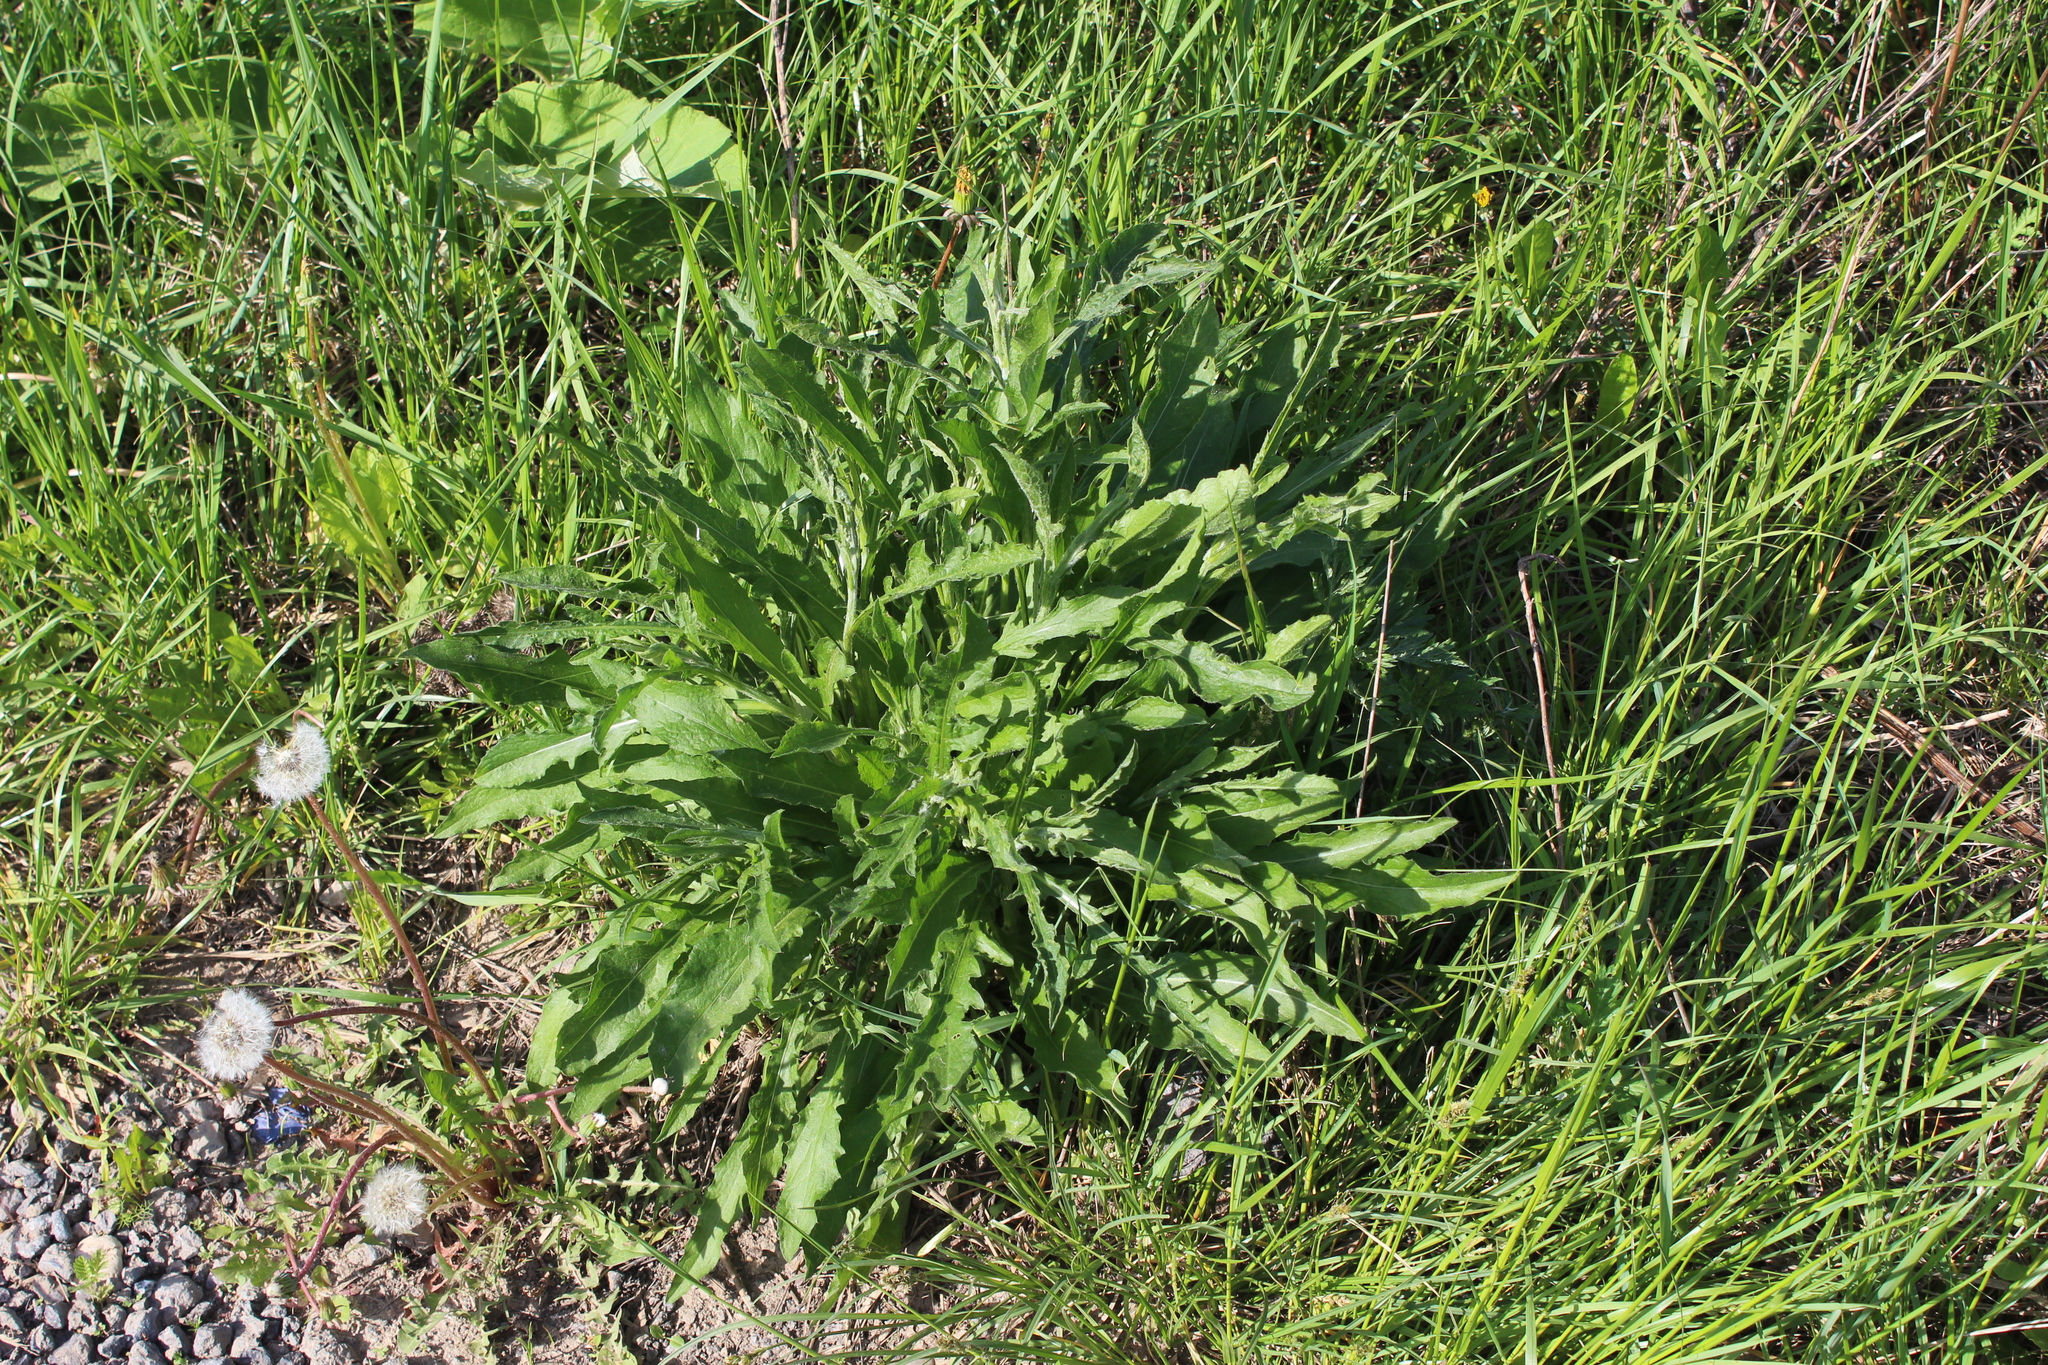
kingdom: Plantae
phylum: Tracheophyta
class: Magnoliopsida
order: Asterales
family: Asteraceae
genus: Centaurea
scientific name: Centaurea jacea
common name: Brown knapweed
